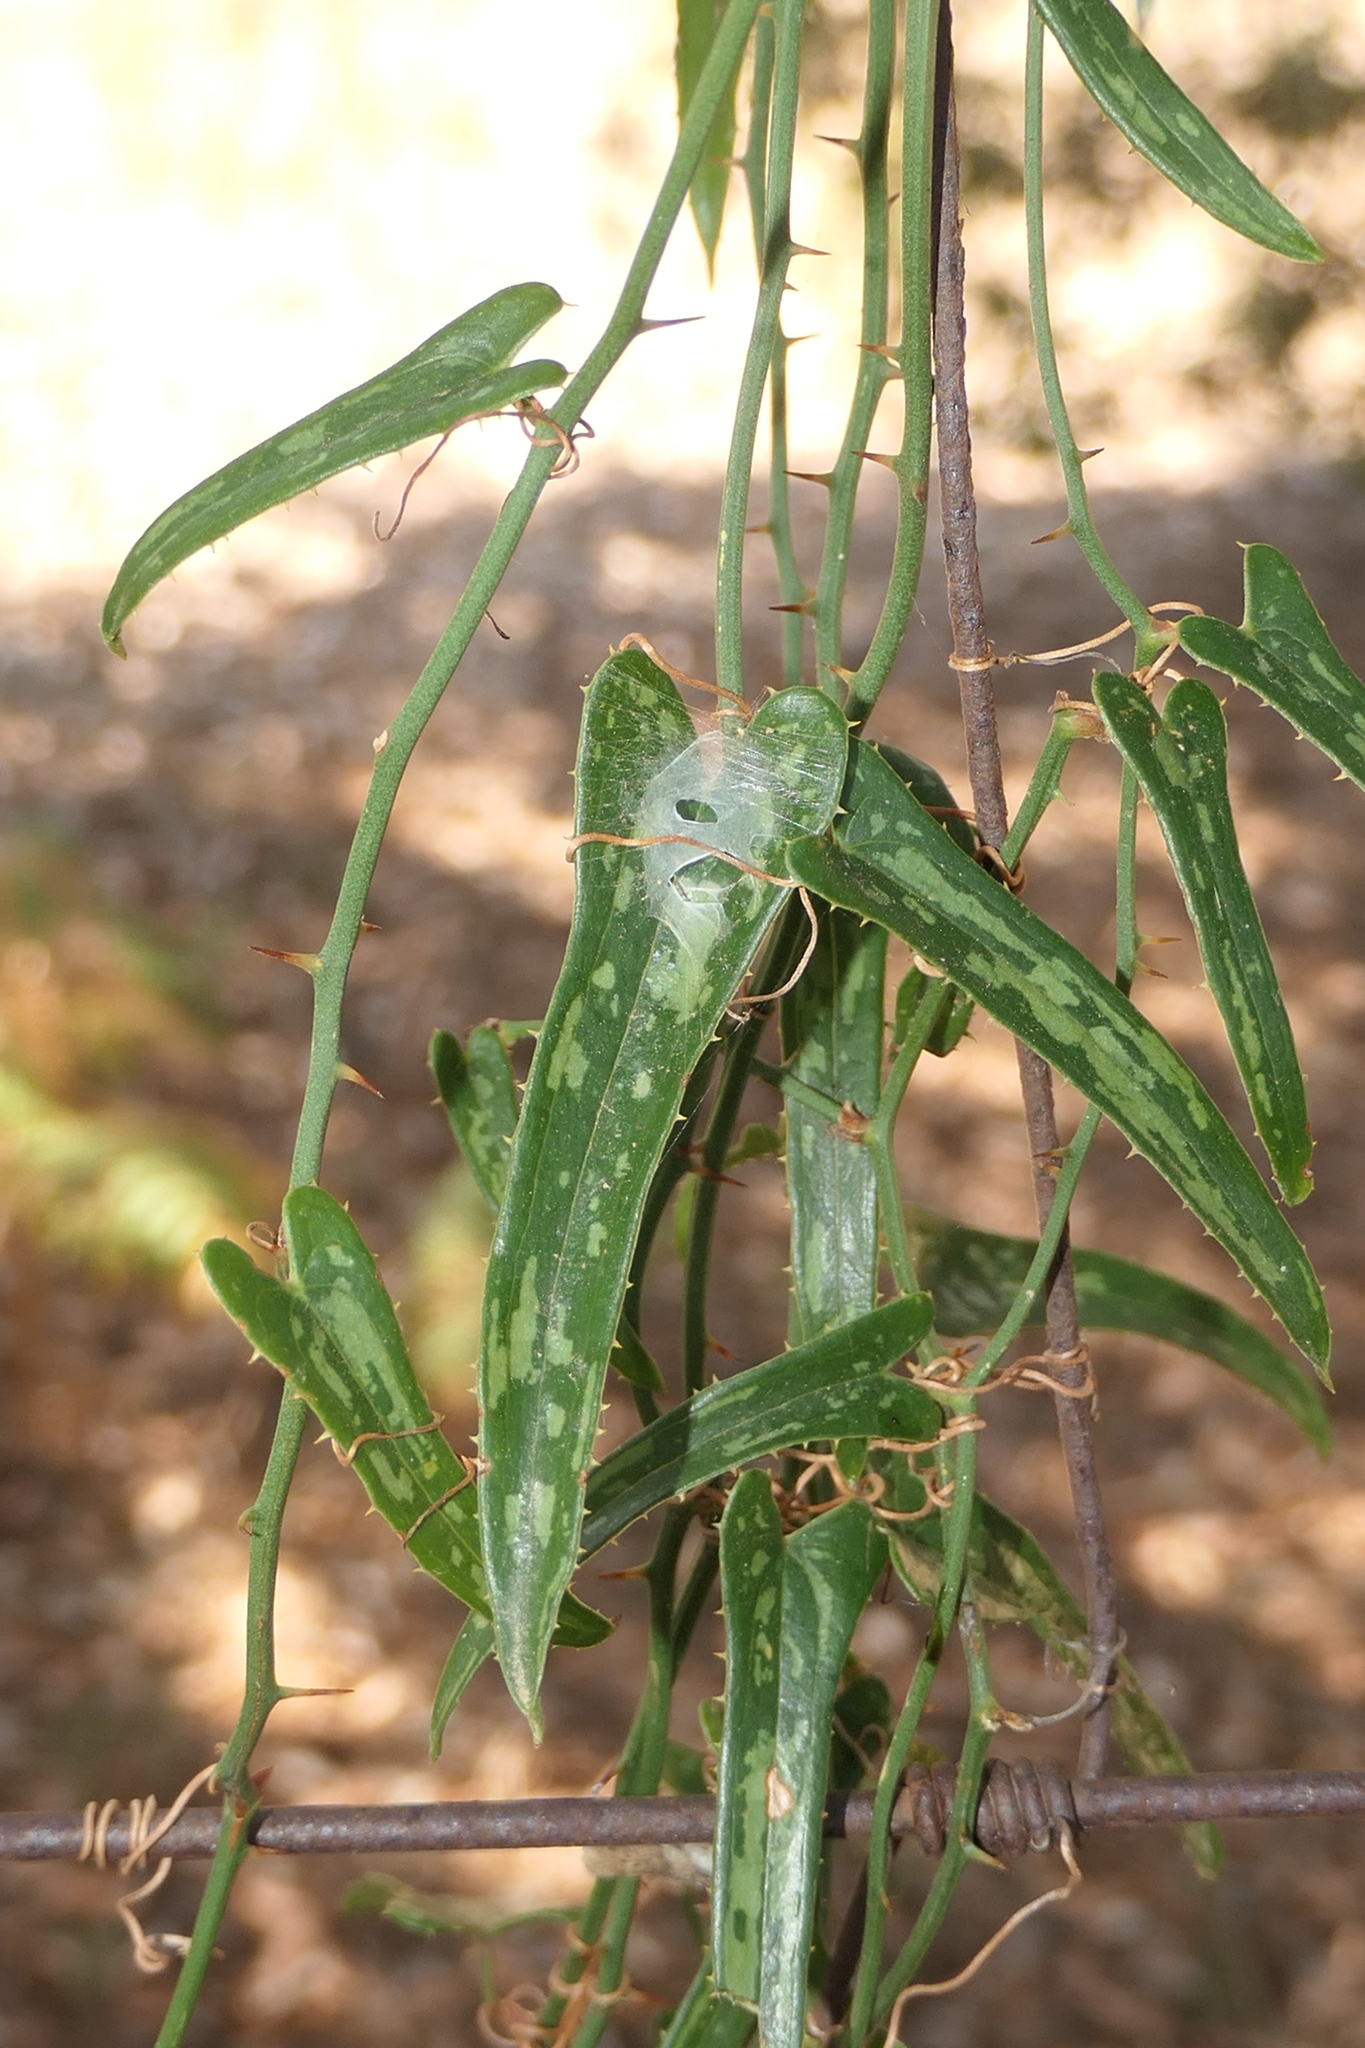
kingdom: Plantae
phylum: Tracheophyta
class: Liliopsida
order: Liliales
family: Smilacaceae
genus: Smilax
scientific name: Smilax aspera
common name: Common smilax
